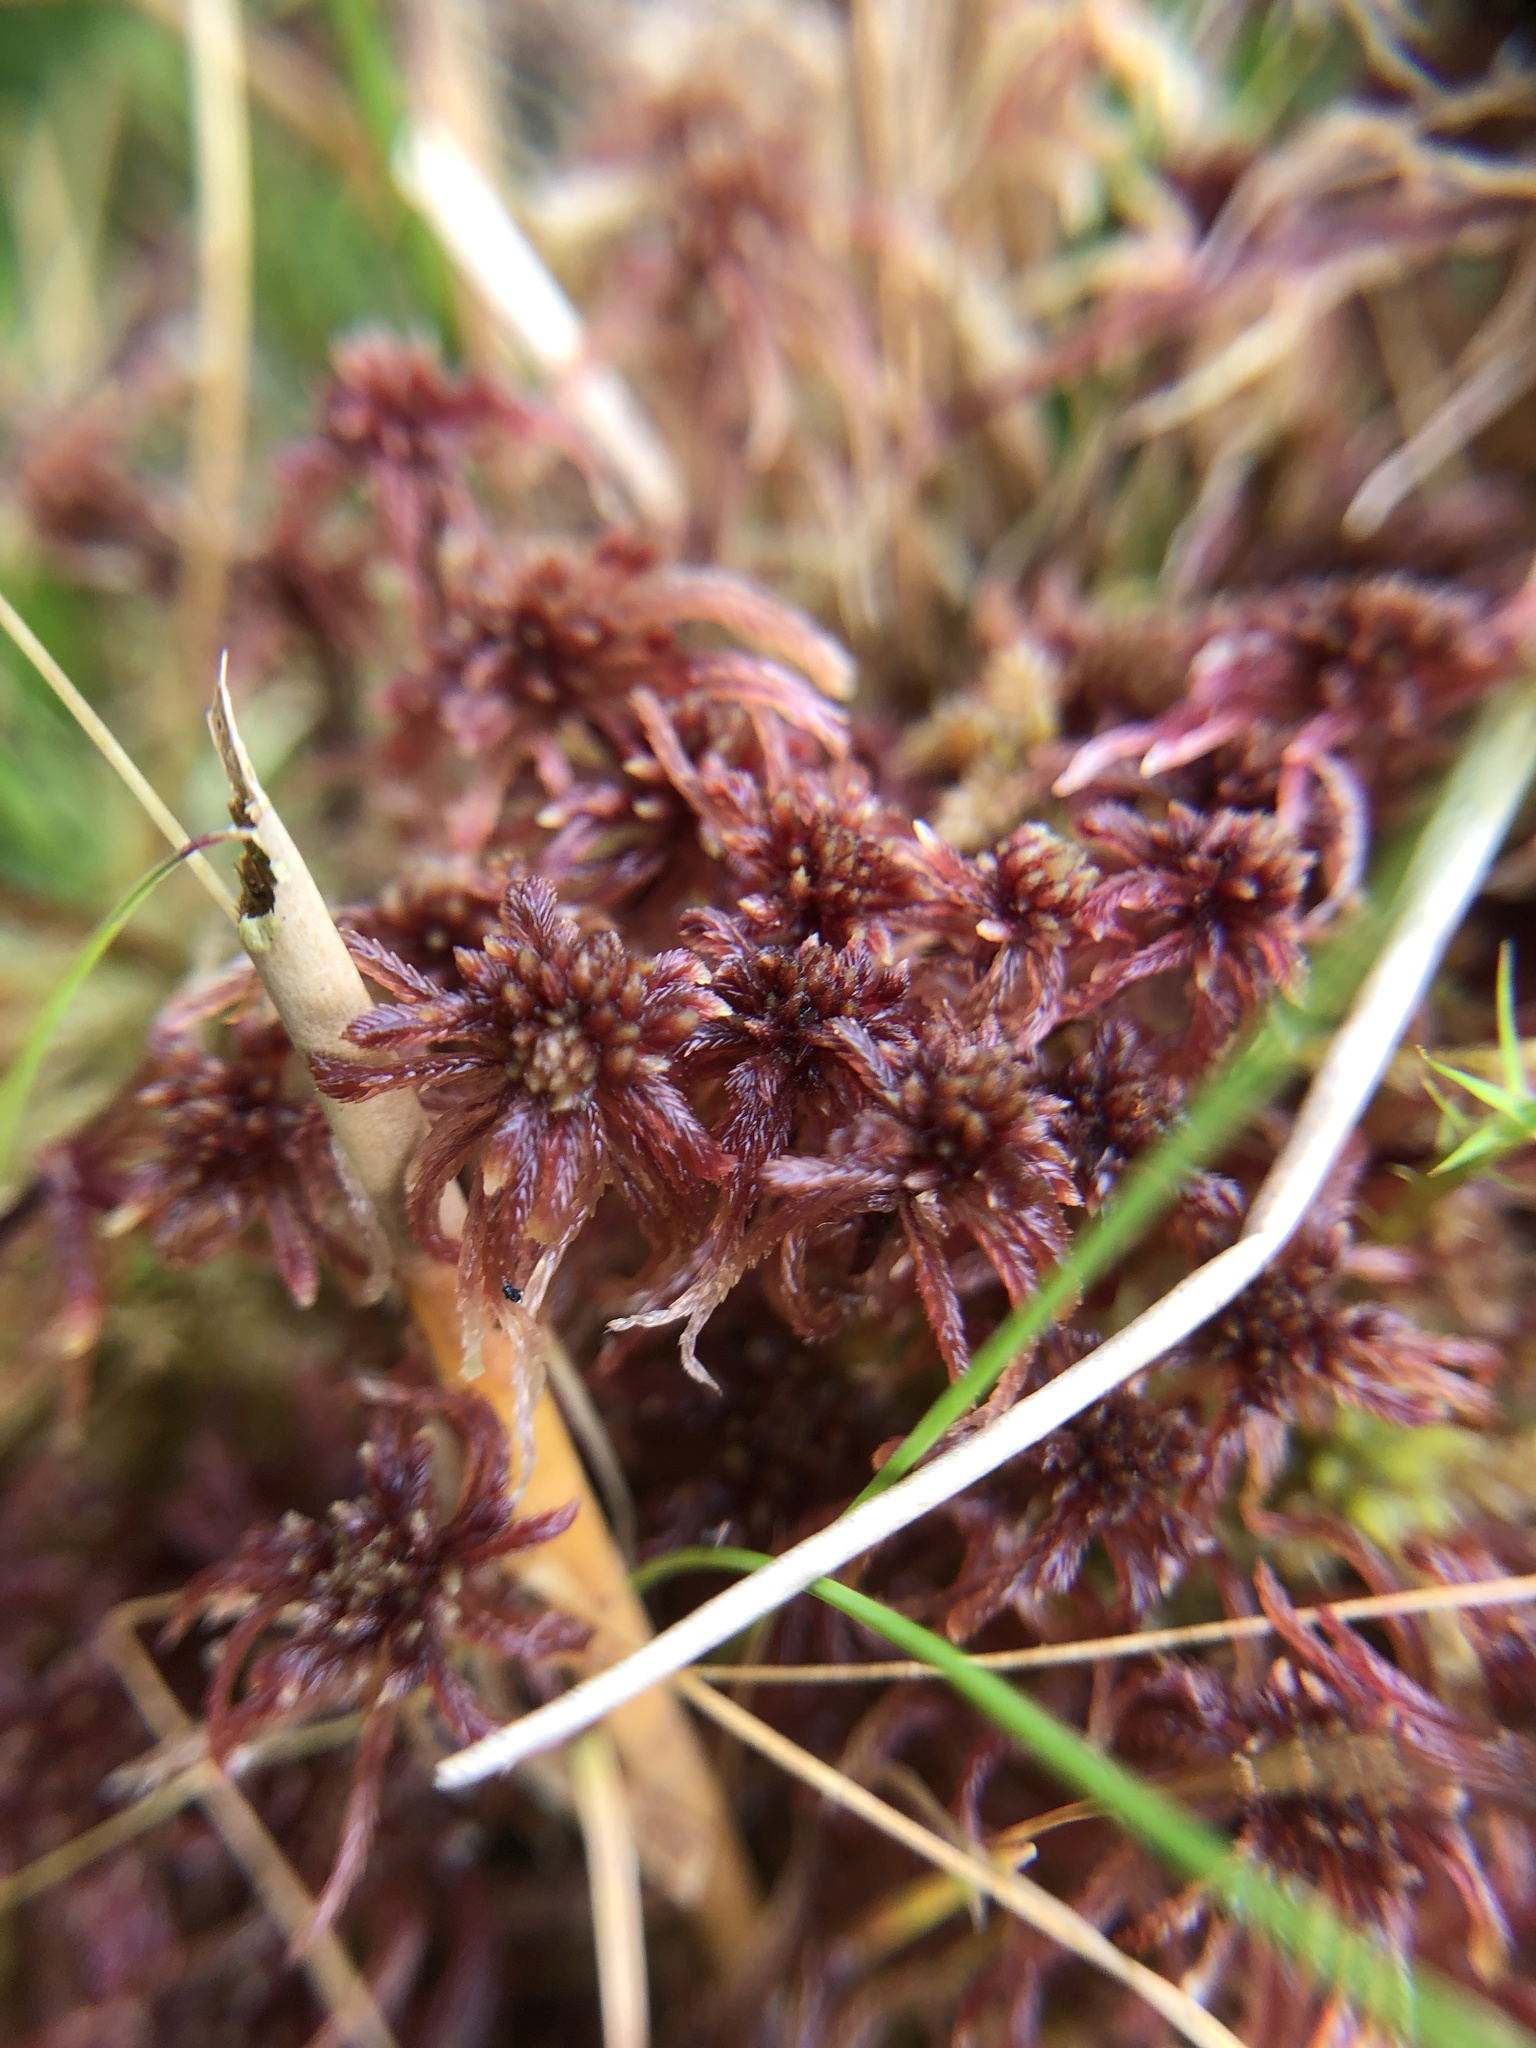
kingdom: Plantae
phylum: Bryophyta
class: Sphagnopsida
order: Sphagnales
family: Sphagnaceae
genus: Sphagnum
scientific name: Sphagnum rubellum
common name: Red peat moss
